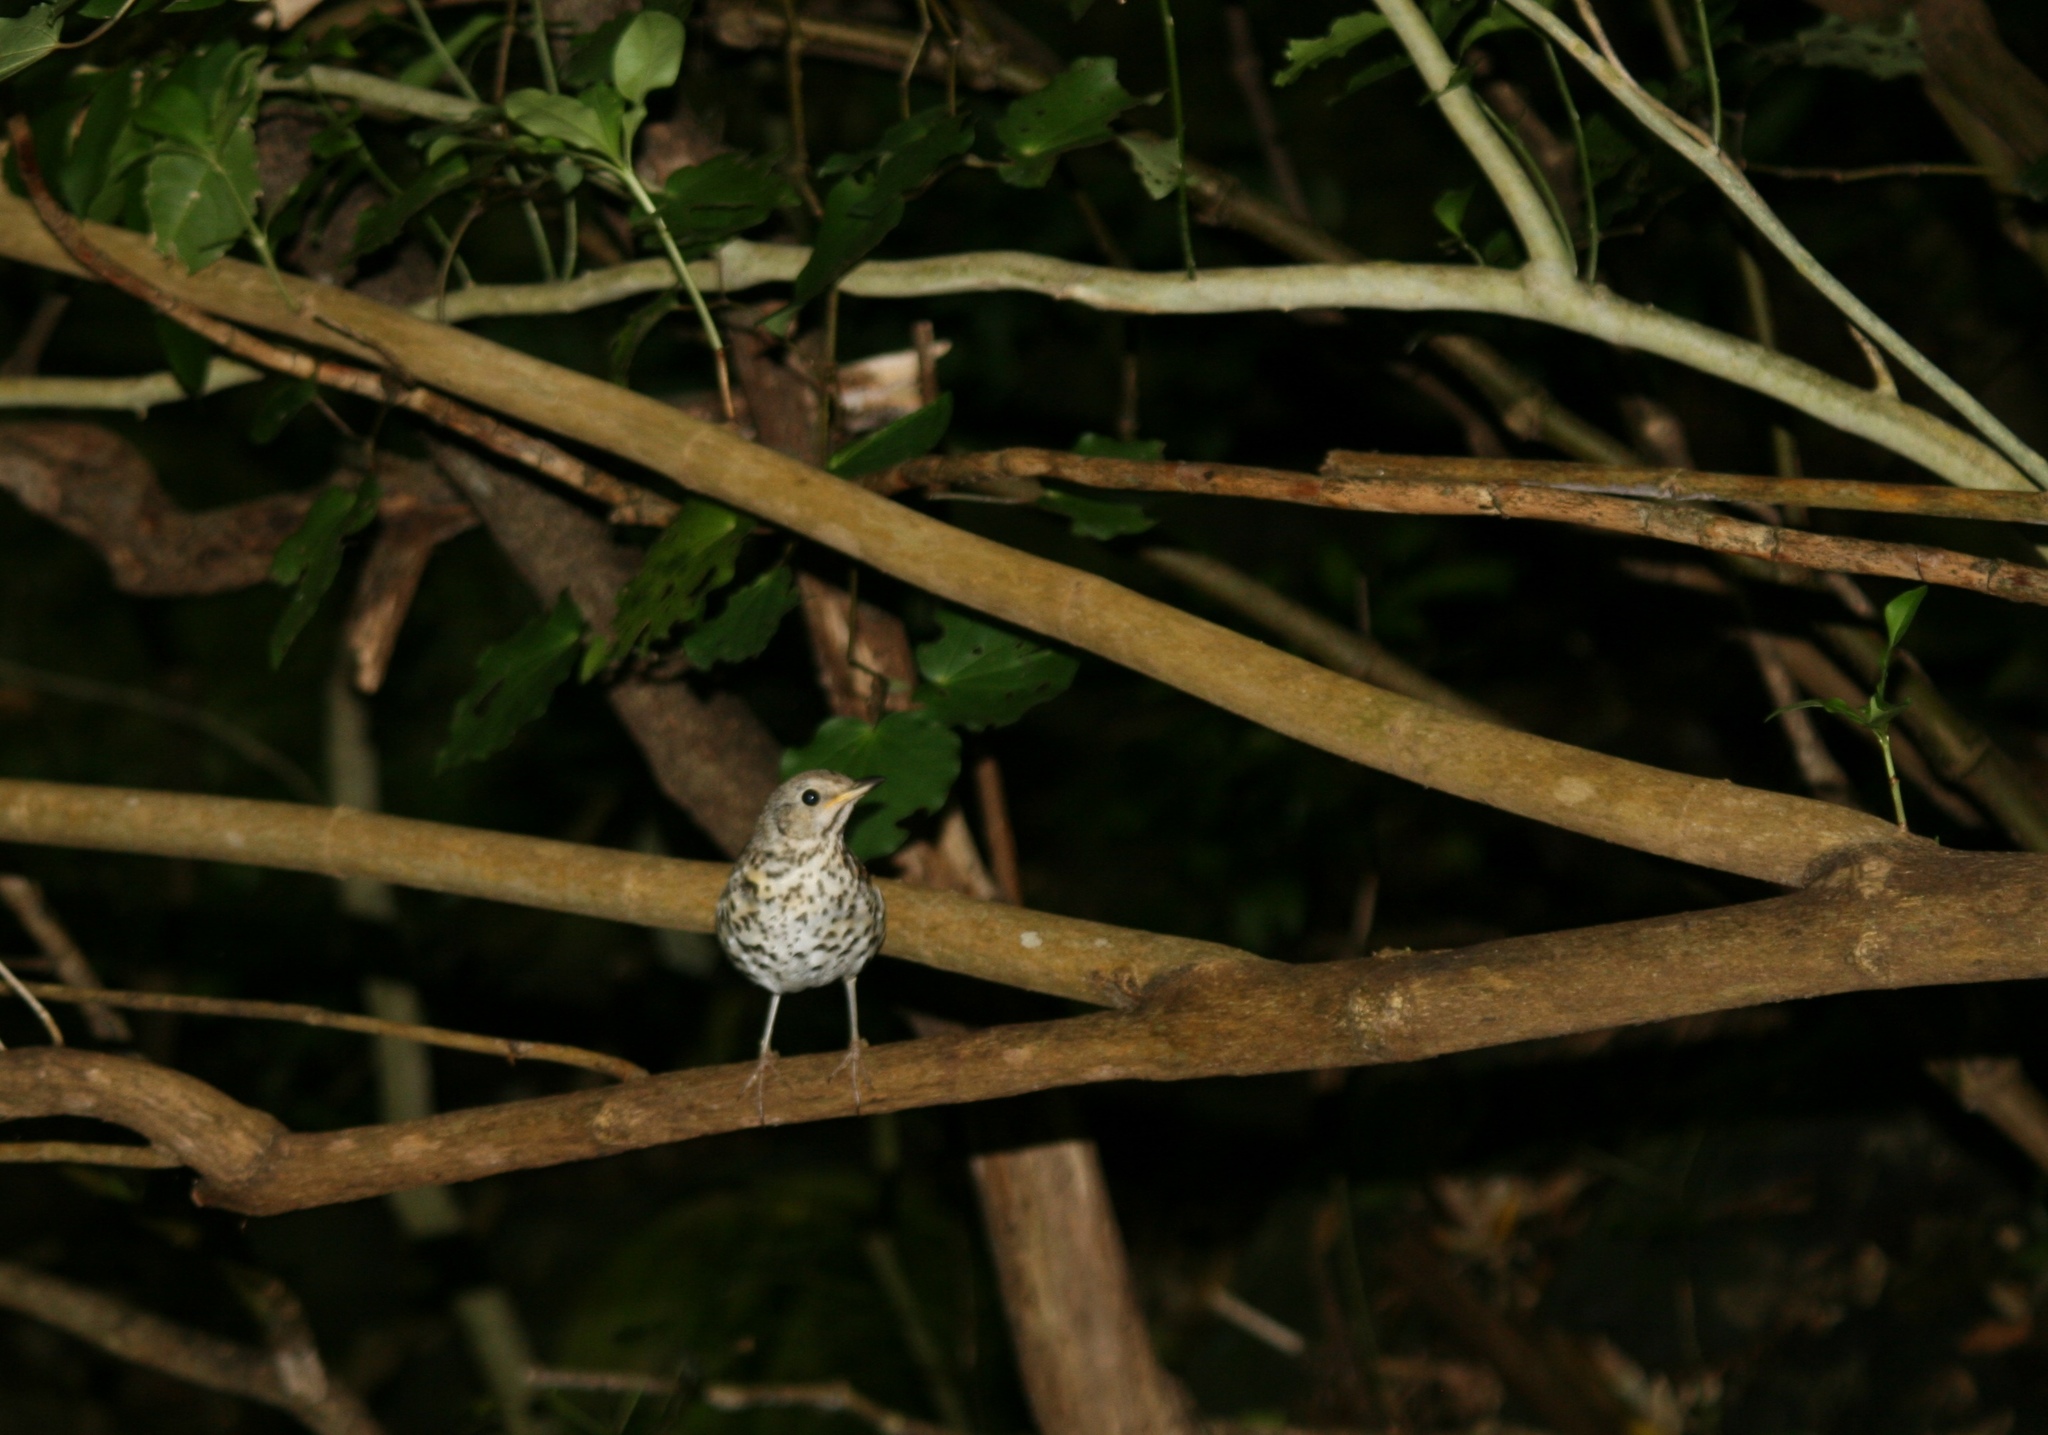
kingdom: Animalia
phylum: Chordata
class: Aves
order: Passeriformes
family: Turdidae
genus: Turdus
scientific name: Turdus philomelos
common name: Song thrush
